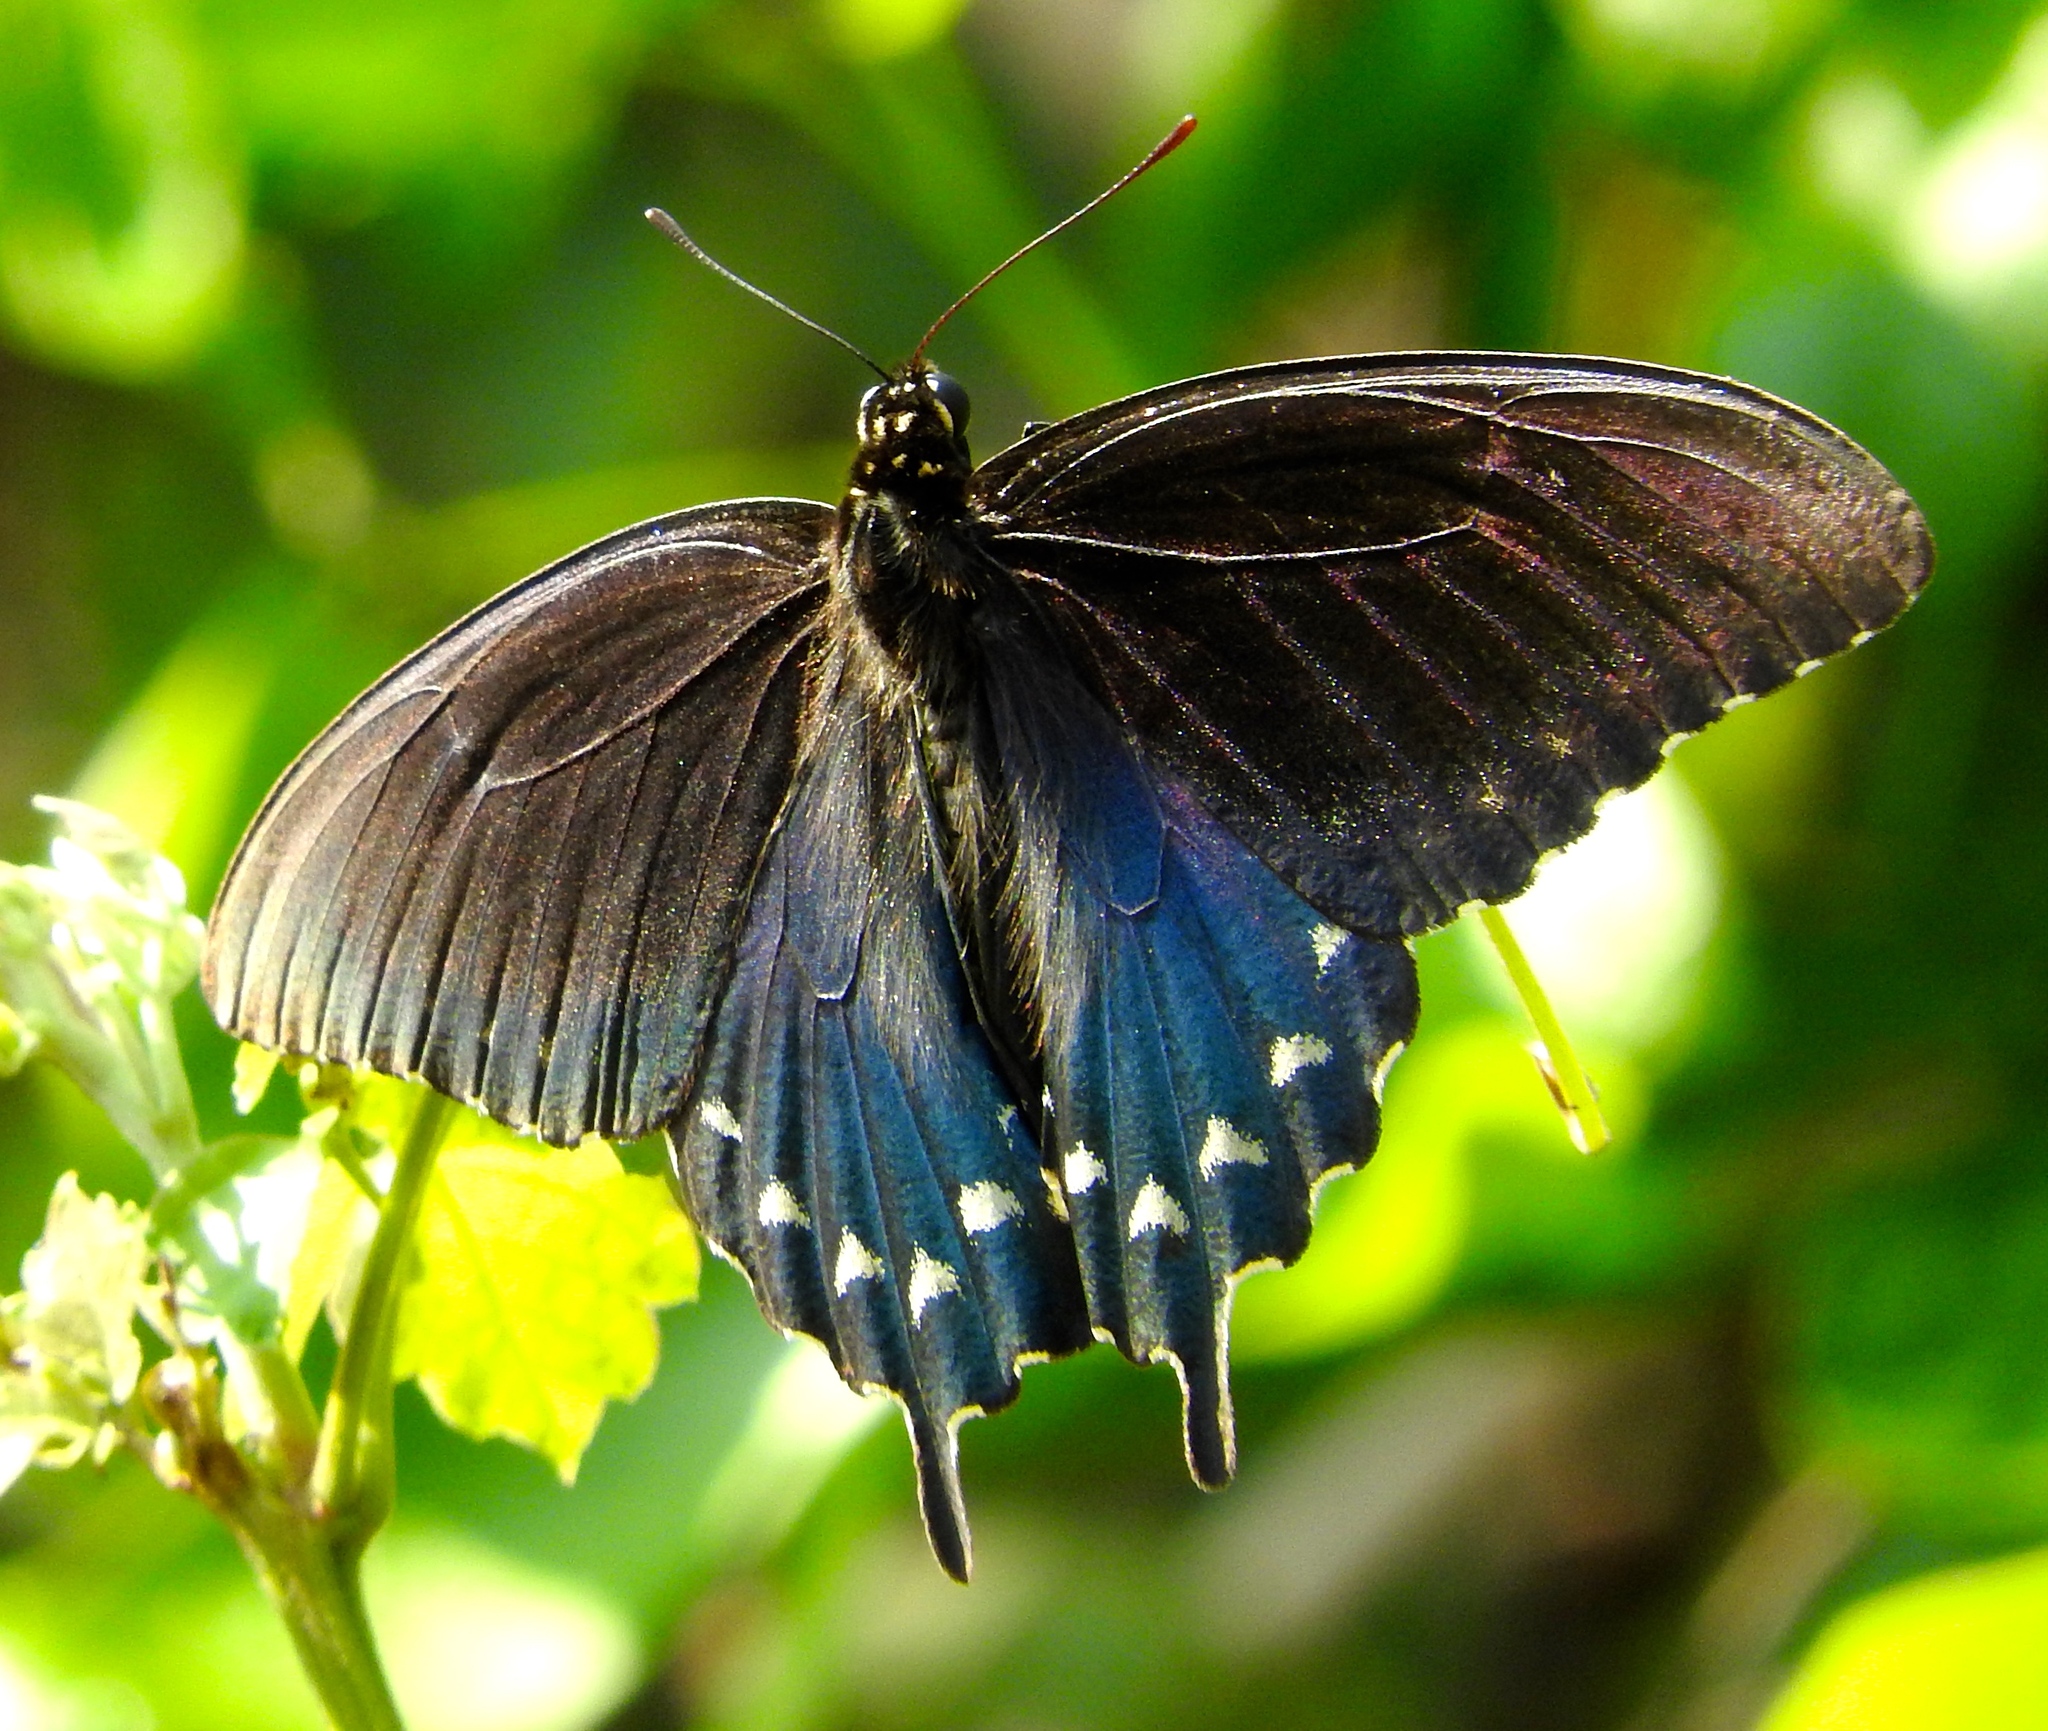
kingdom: Animalia
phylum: Arthropoda
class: Insecta
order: Lepidoptera
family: Papilionidae
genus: Battus
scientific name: Battus philenor
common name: Pipevine swallowtail
